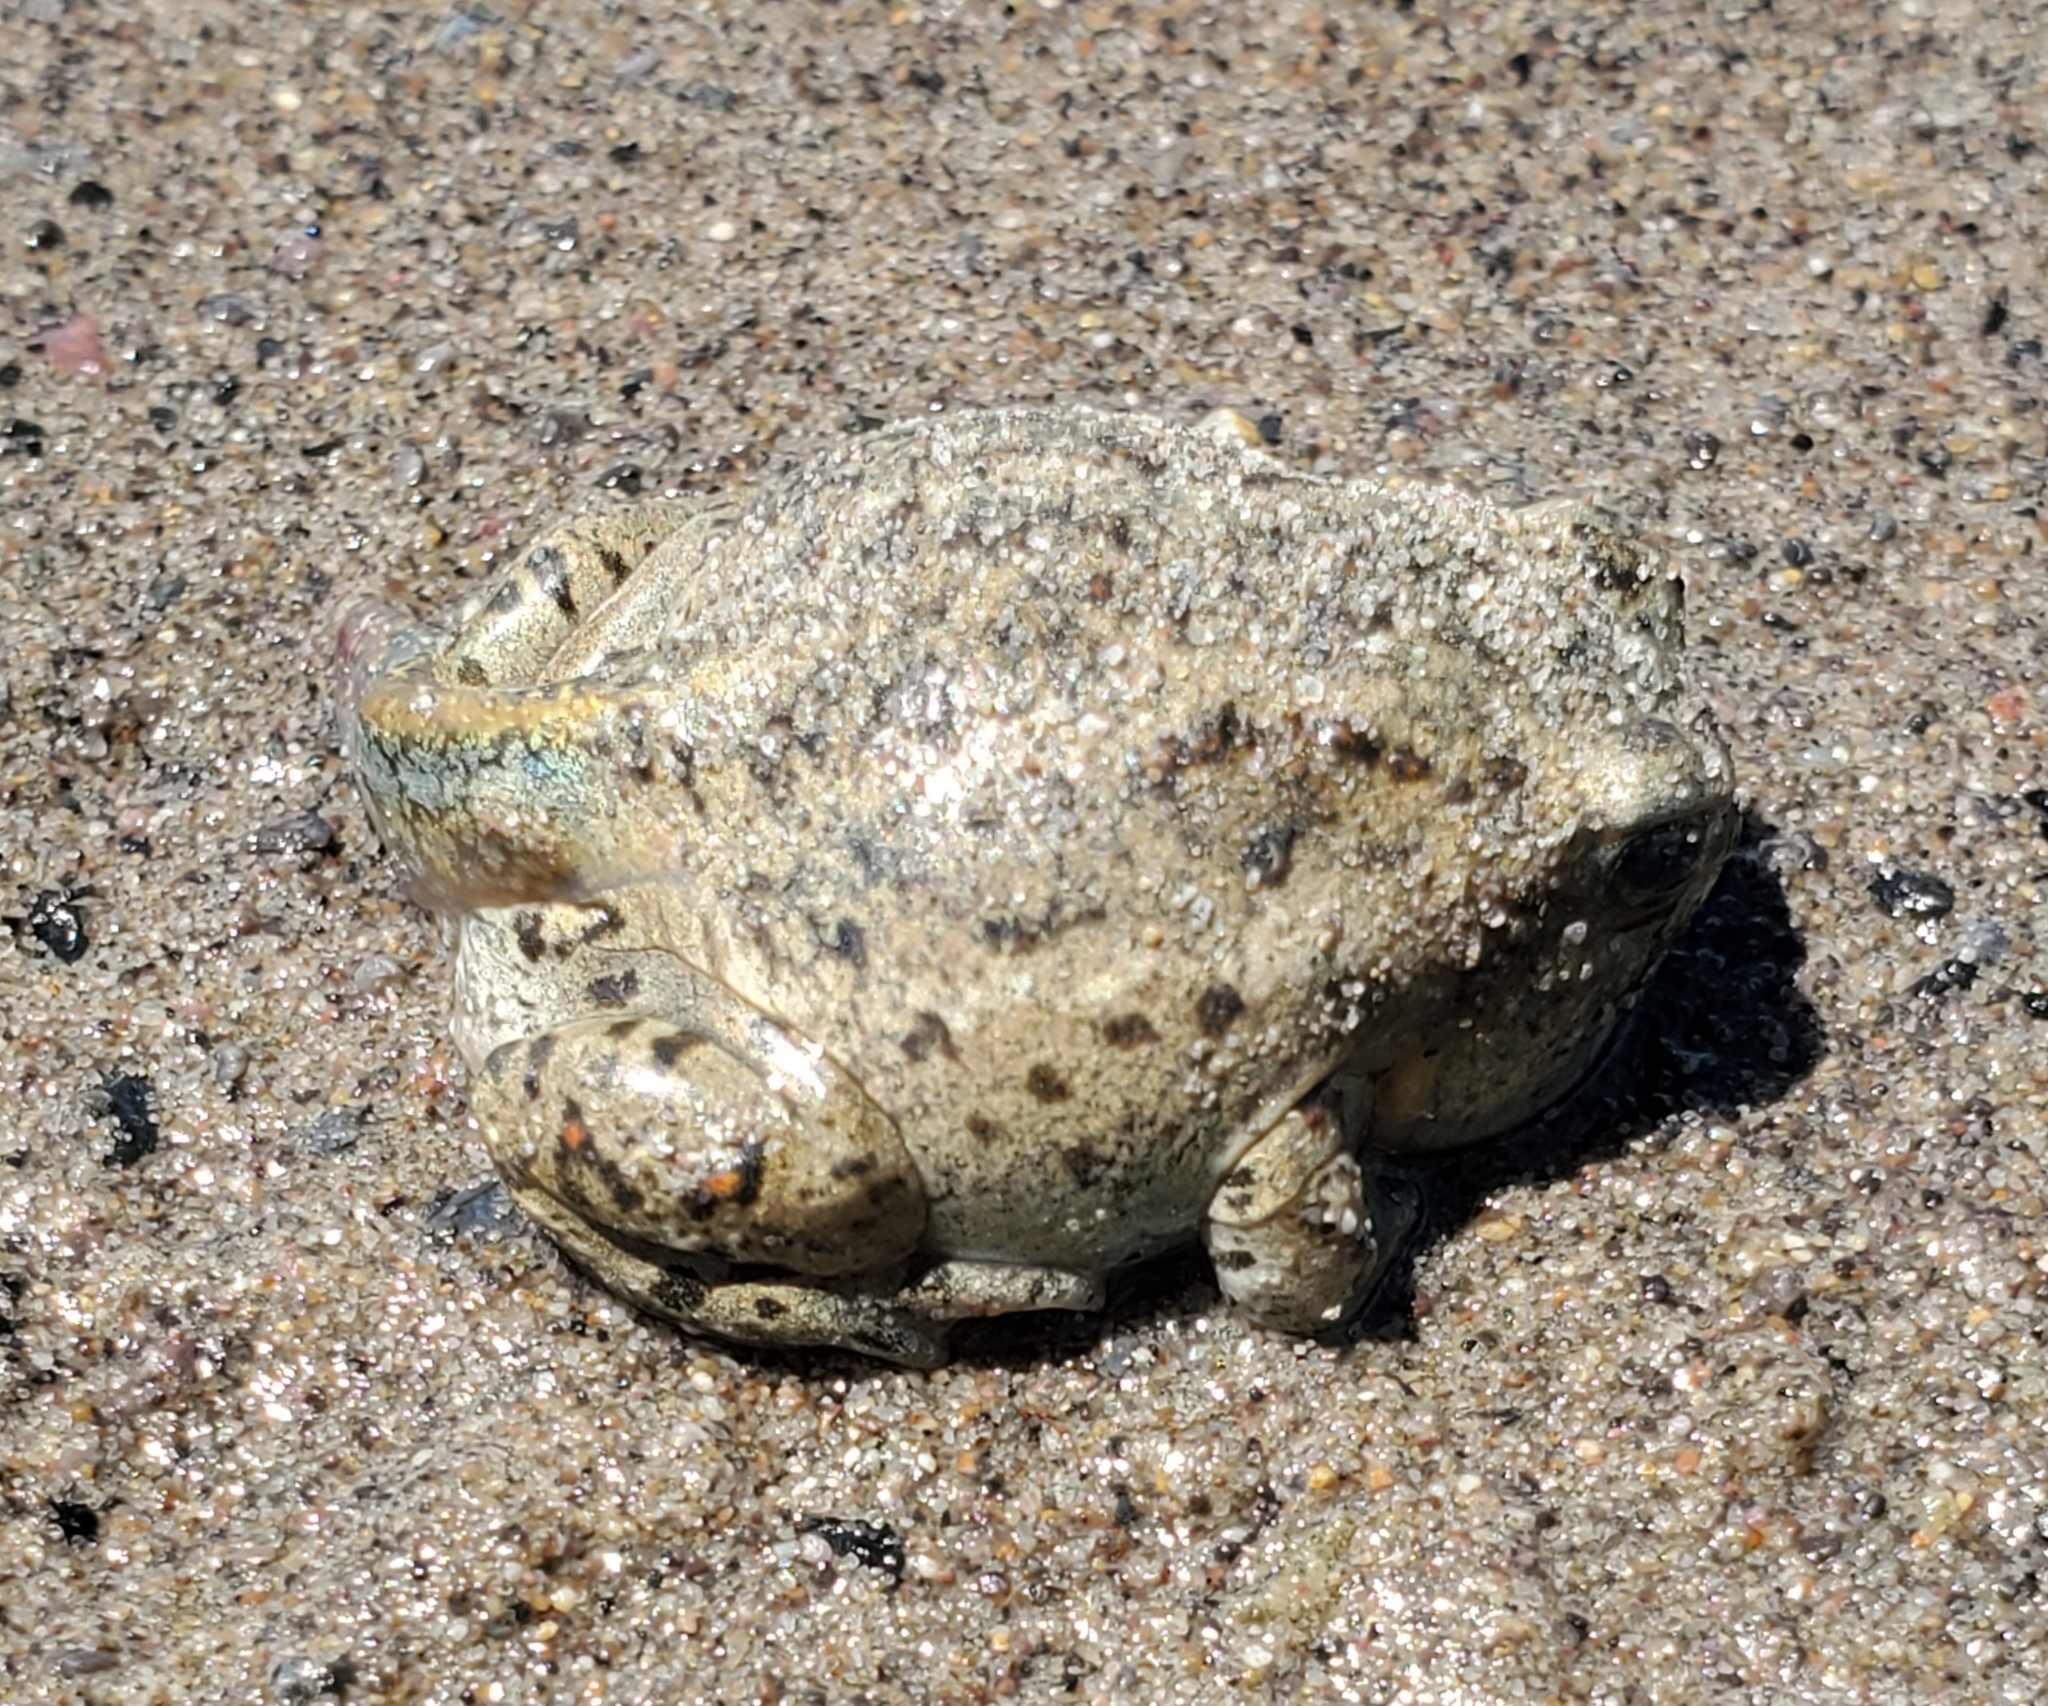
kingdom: Animalia
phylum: Chordata
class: Amphibia
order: Anura
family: Scaphiopodidae
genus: Spea
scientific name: Spea intermontana
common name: Great basin spadefoot
